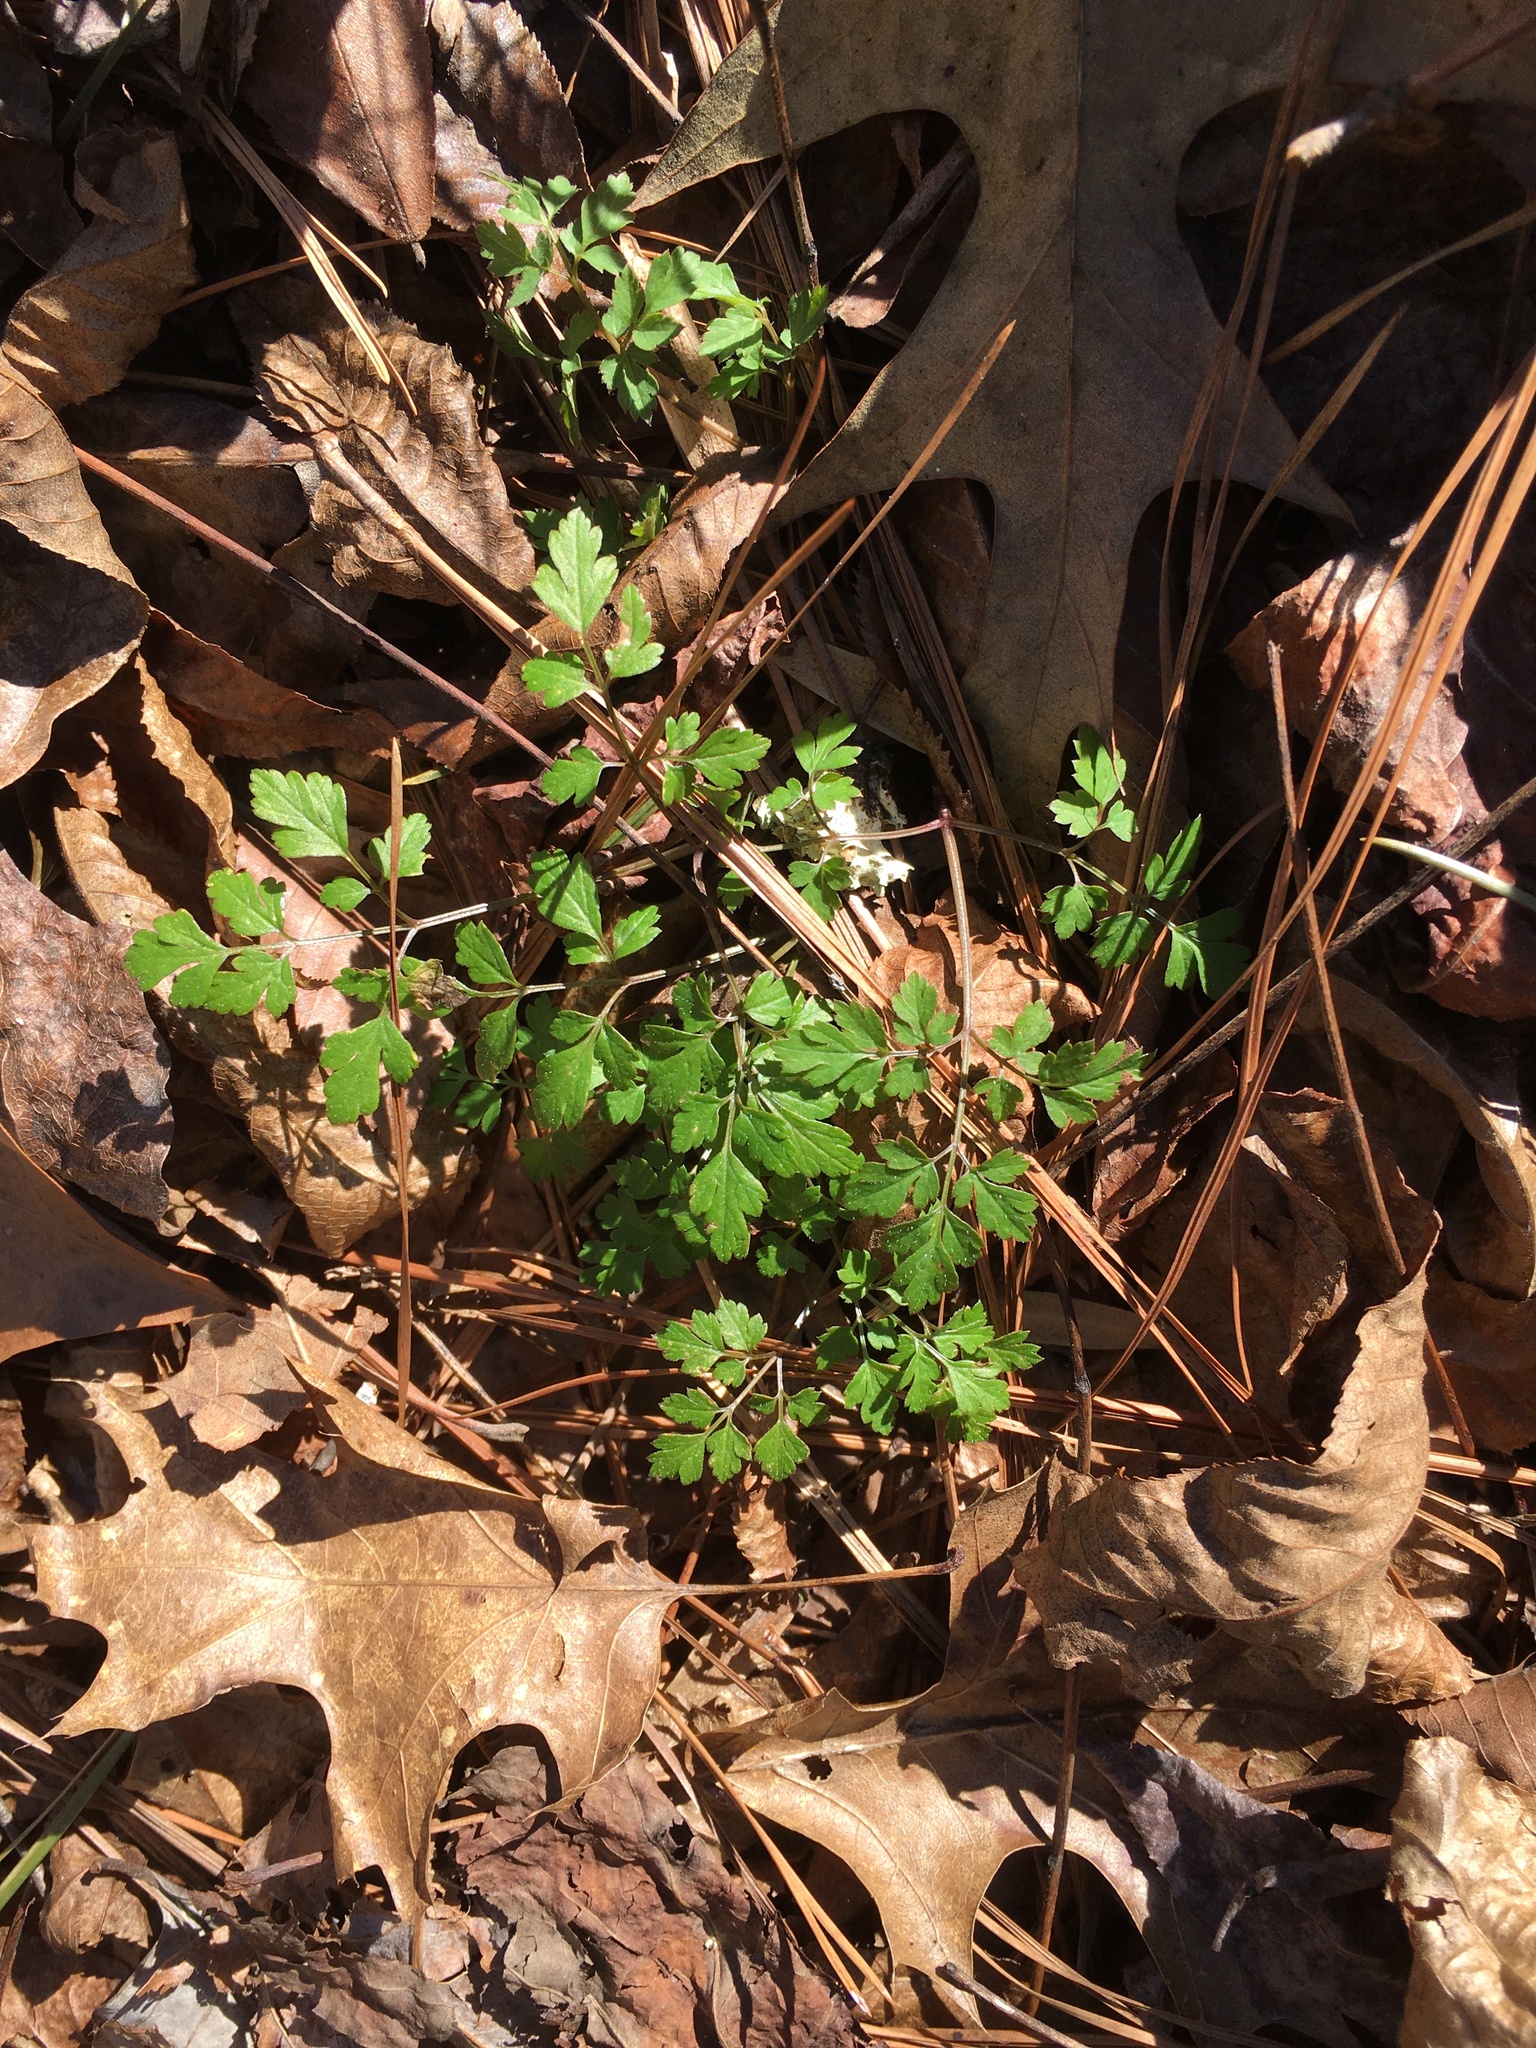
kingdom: Plantae
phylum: Tracheophyta
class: Magnoliopsida
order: Apiales
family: Apiaceae
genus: Osmorhiza
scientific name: Osmorhiza longistylis
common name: Smooth sweet cicely
